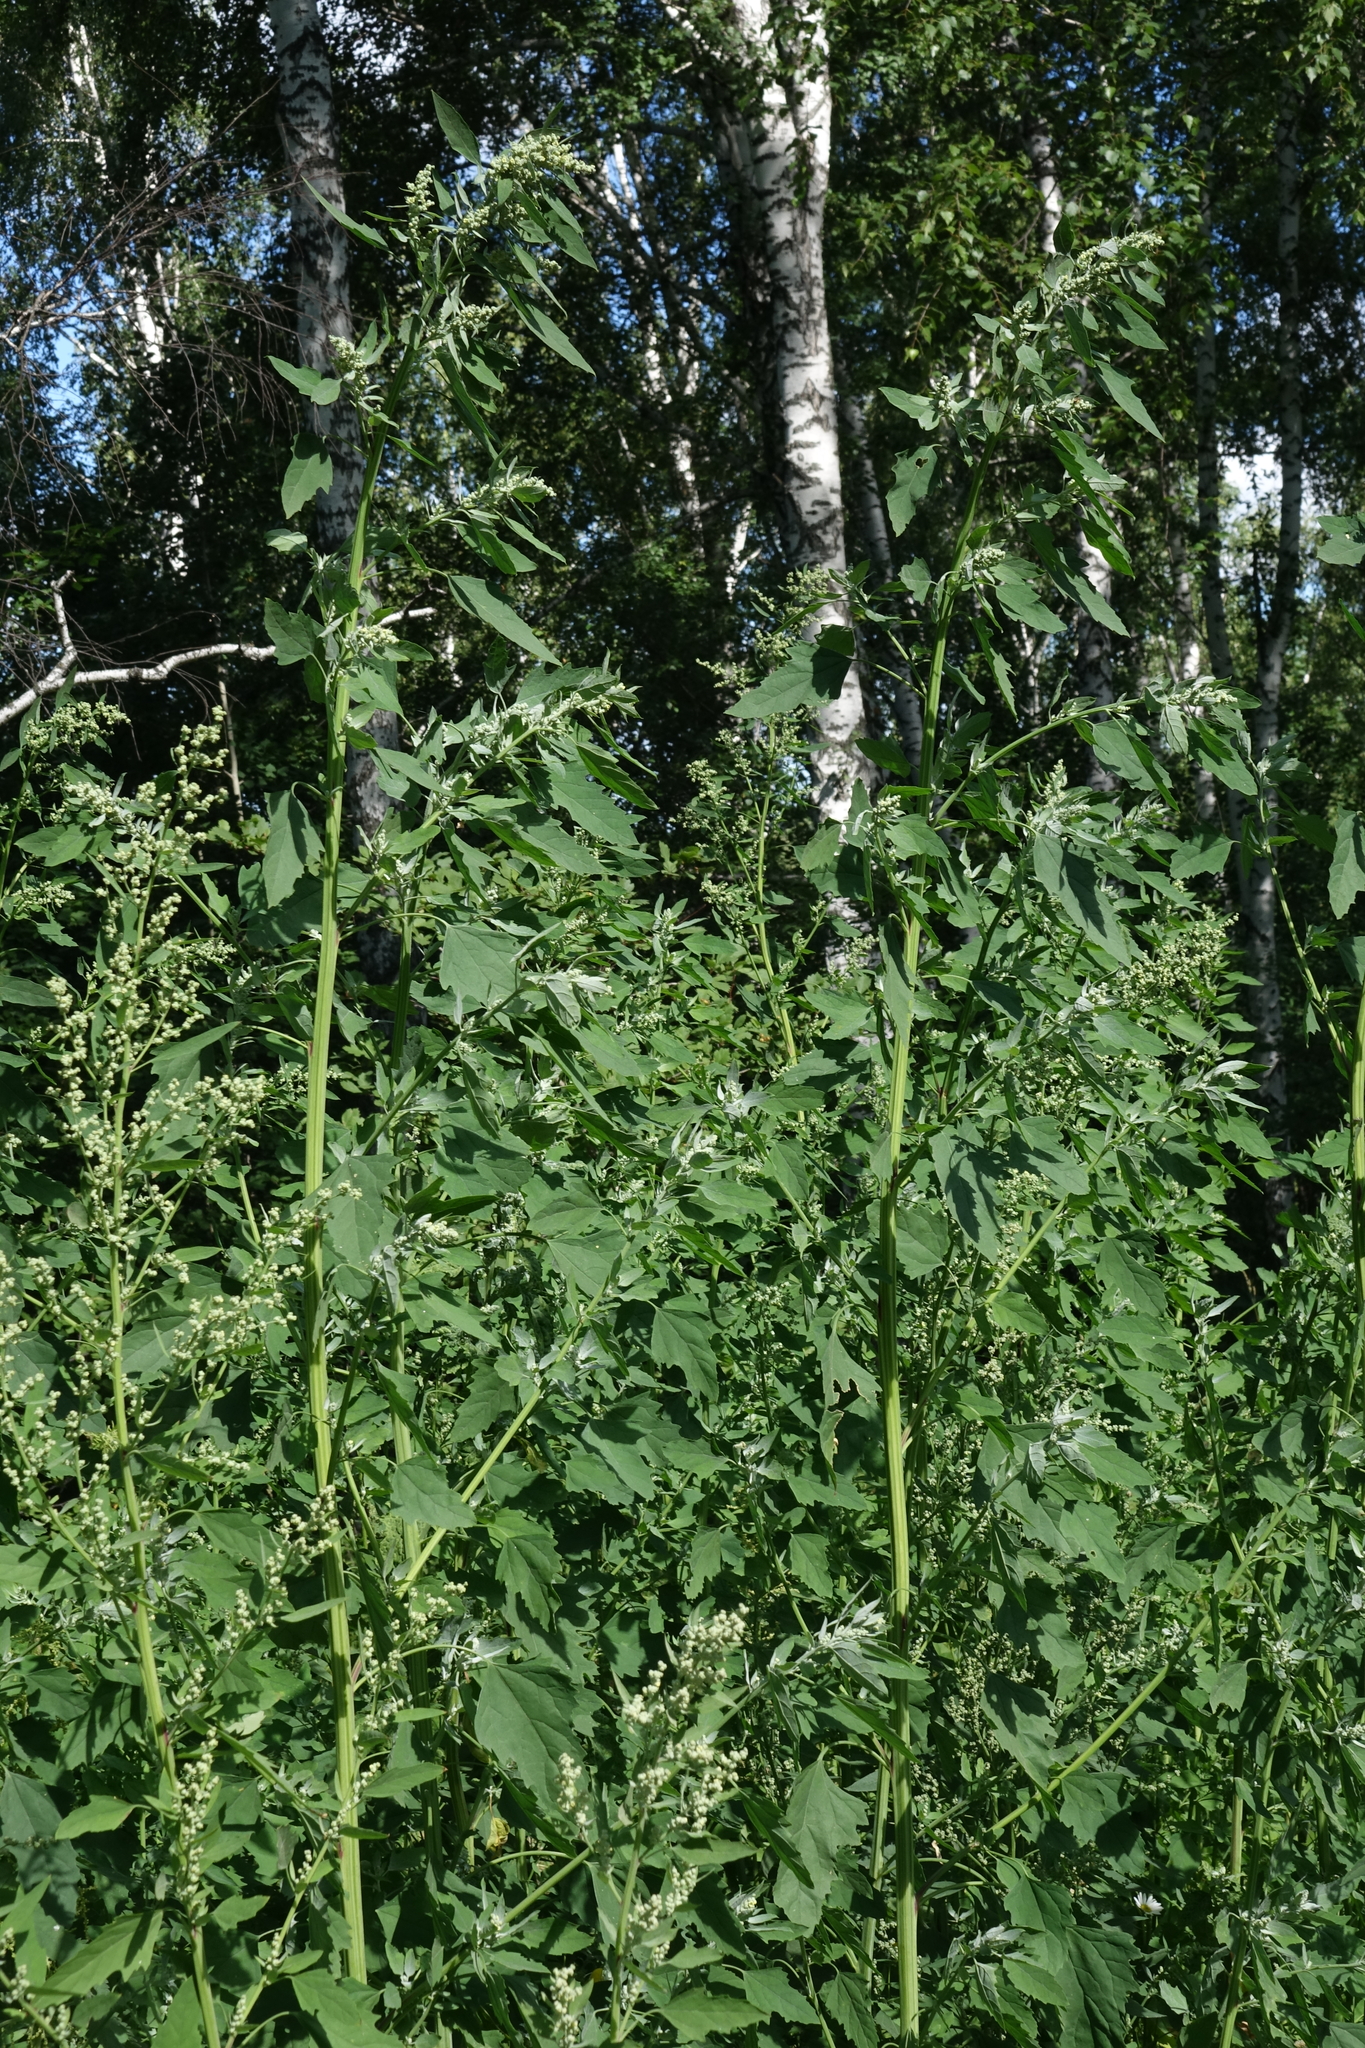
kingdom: Plantae
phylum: Tracheophyta
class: Magnoliopsida
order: Caryophyllales
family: Amaranthaceae
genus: Chenopodium
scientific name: Chenopodium album
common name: Fat-hen
